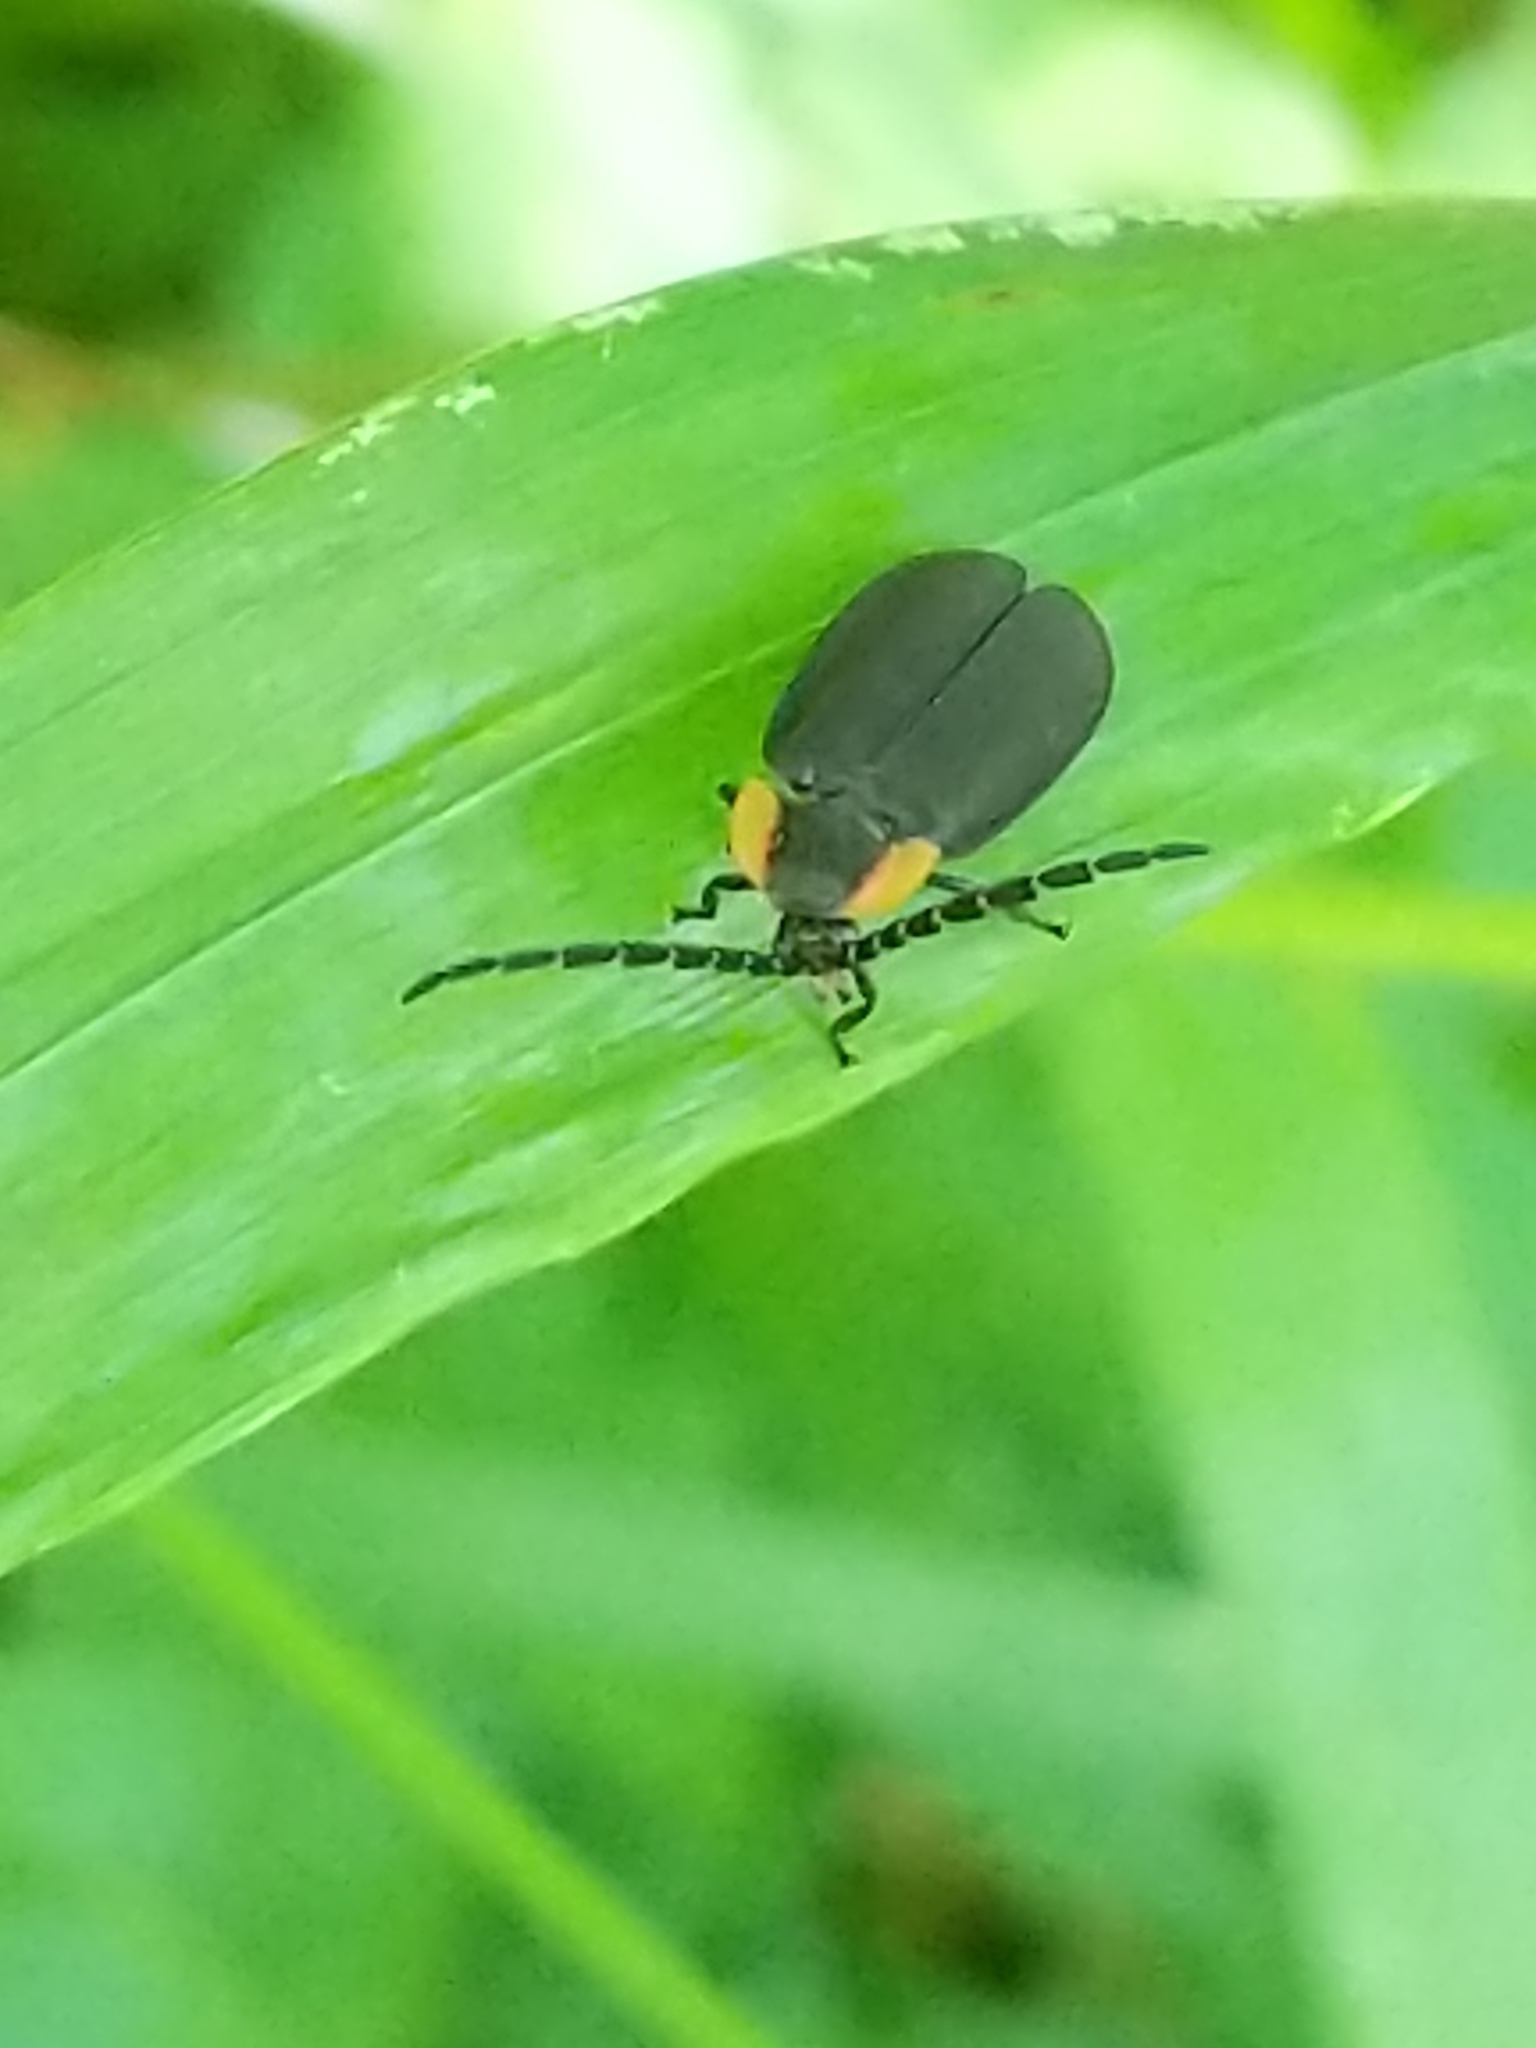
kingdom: Animalia
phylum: Arthropoda
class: Insecta
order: Coleoptera
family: Lampyridae
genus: Lucidota
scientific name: Lucidota atra
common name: Black firefly
